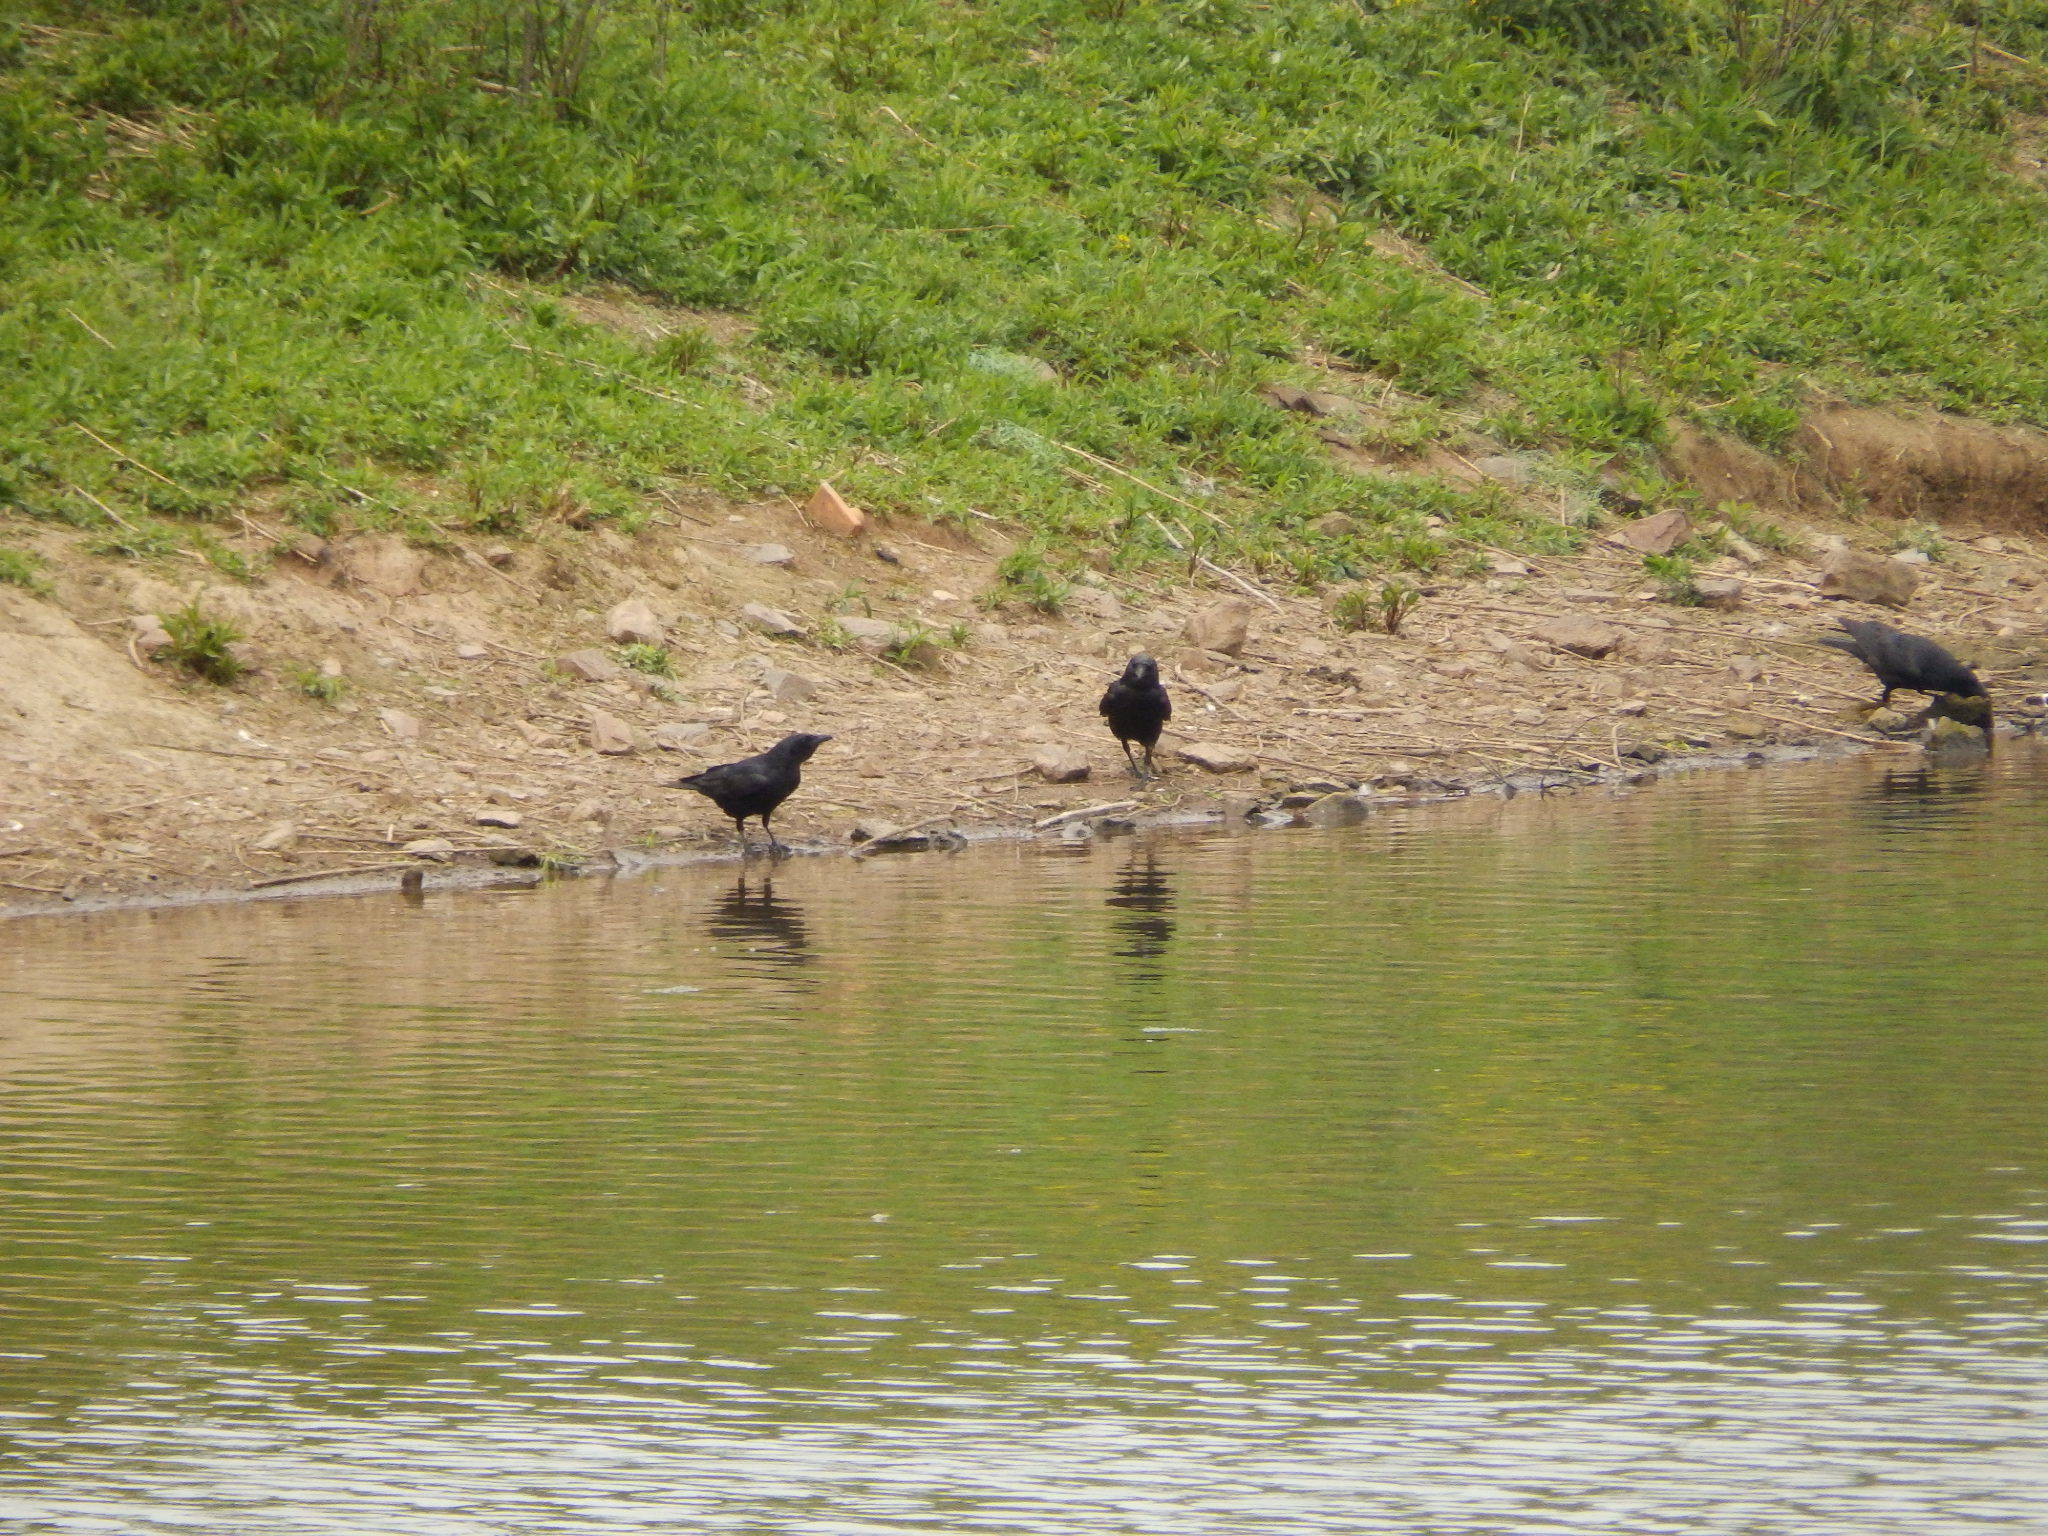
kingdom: Animalia
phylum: Chordata
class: Aves
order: Passeriformes
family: Corvidae
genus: Corvus
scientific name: Corvus brachyrhynchos
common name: American crow
